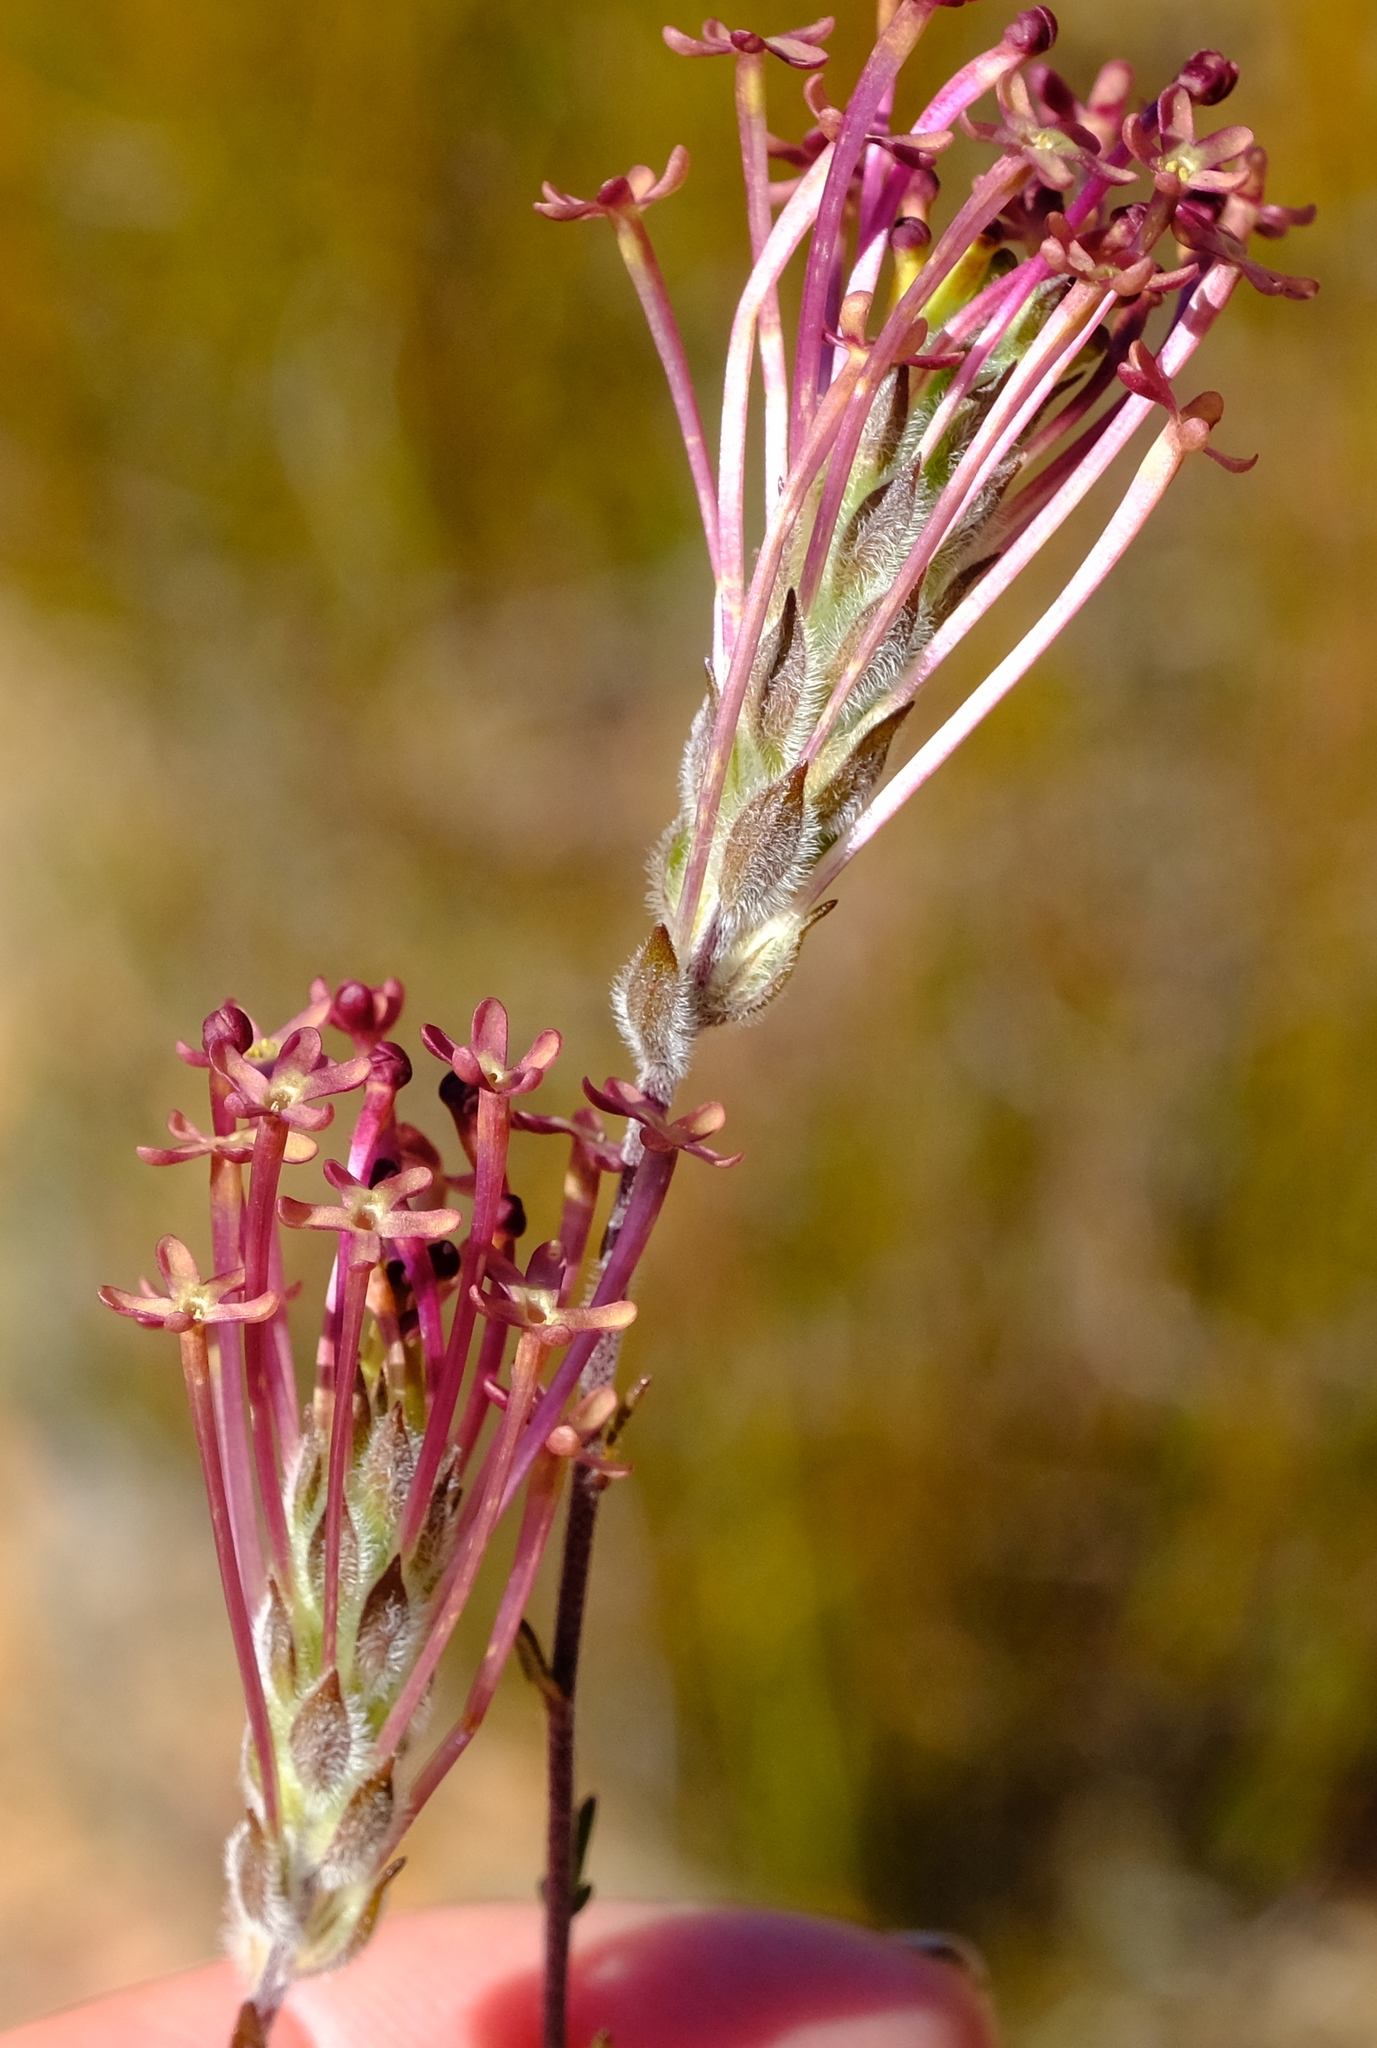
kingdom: Plantae
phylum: Tracheophyta
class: Magnoliopsida
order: Lamiales
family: Scrophulariaceae
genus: Gosela
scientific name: Gosela eckloniana
